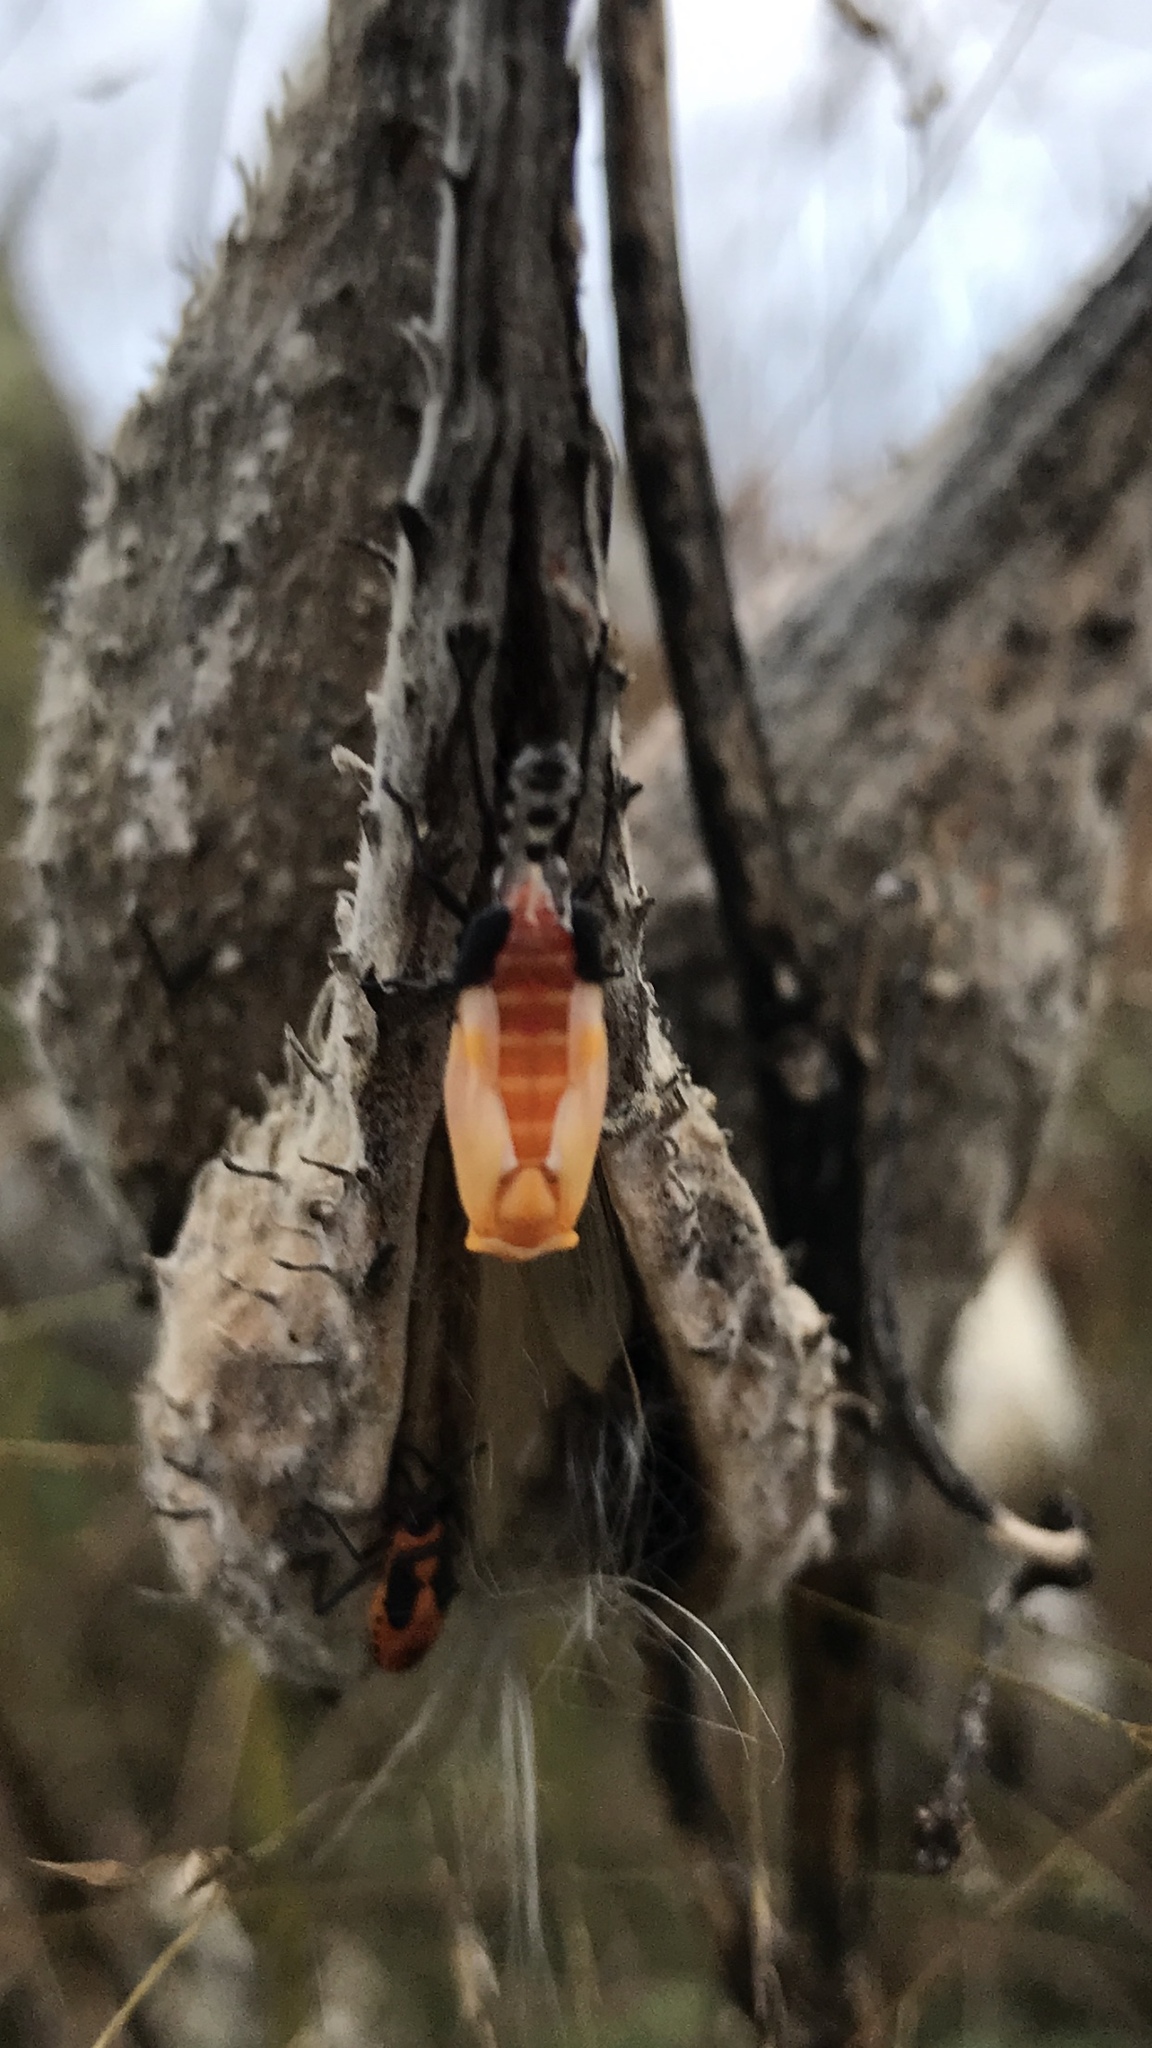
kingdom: Animalia
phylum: Arthropoda
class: Insecta
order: Hemiptera
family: Lygaeidae
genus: Oncopeltus
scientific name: Oncopeltus fasciatus
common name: Large milkweed bug
